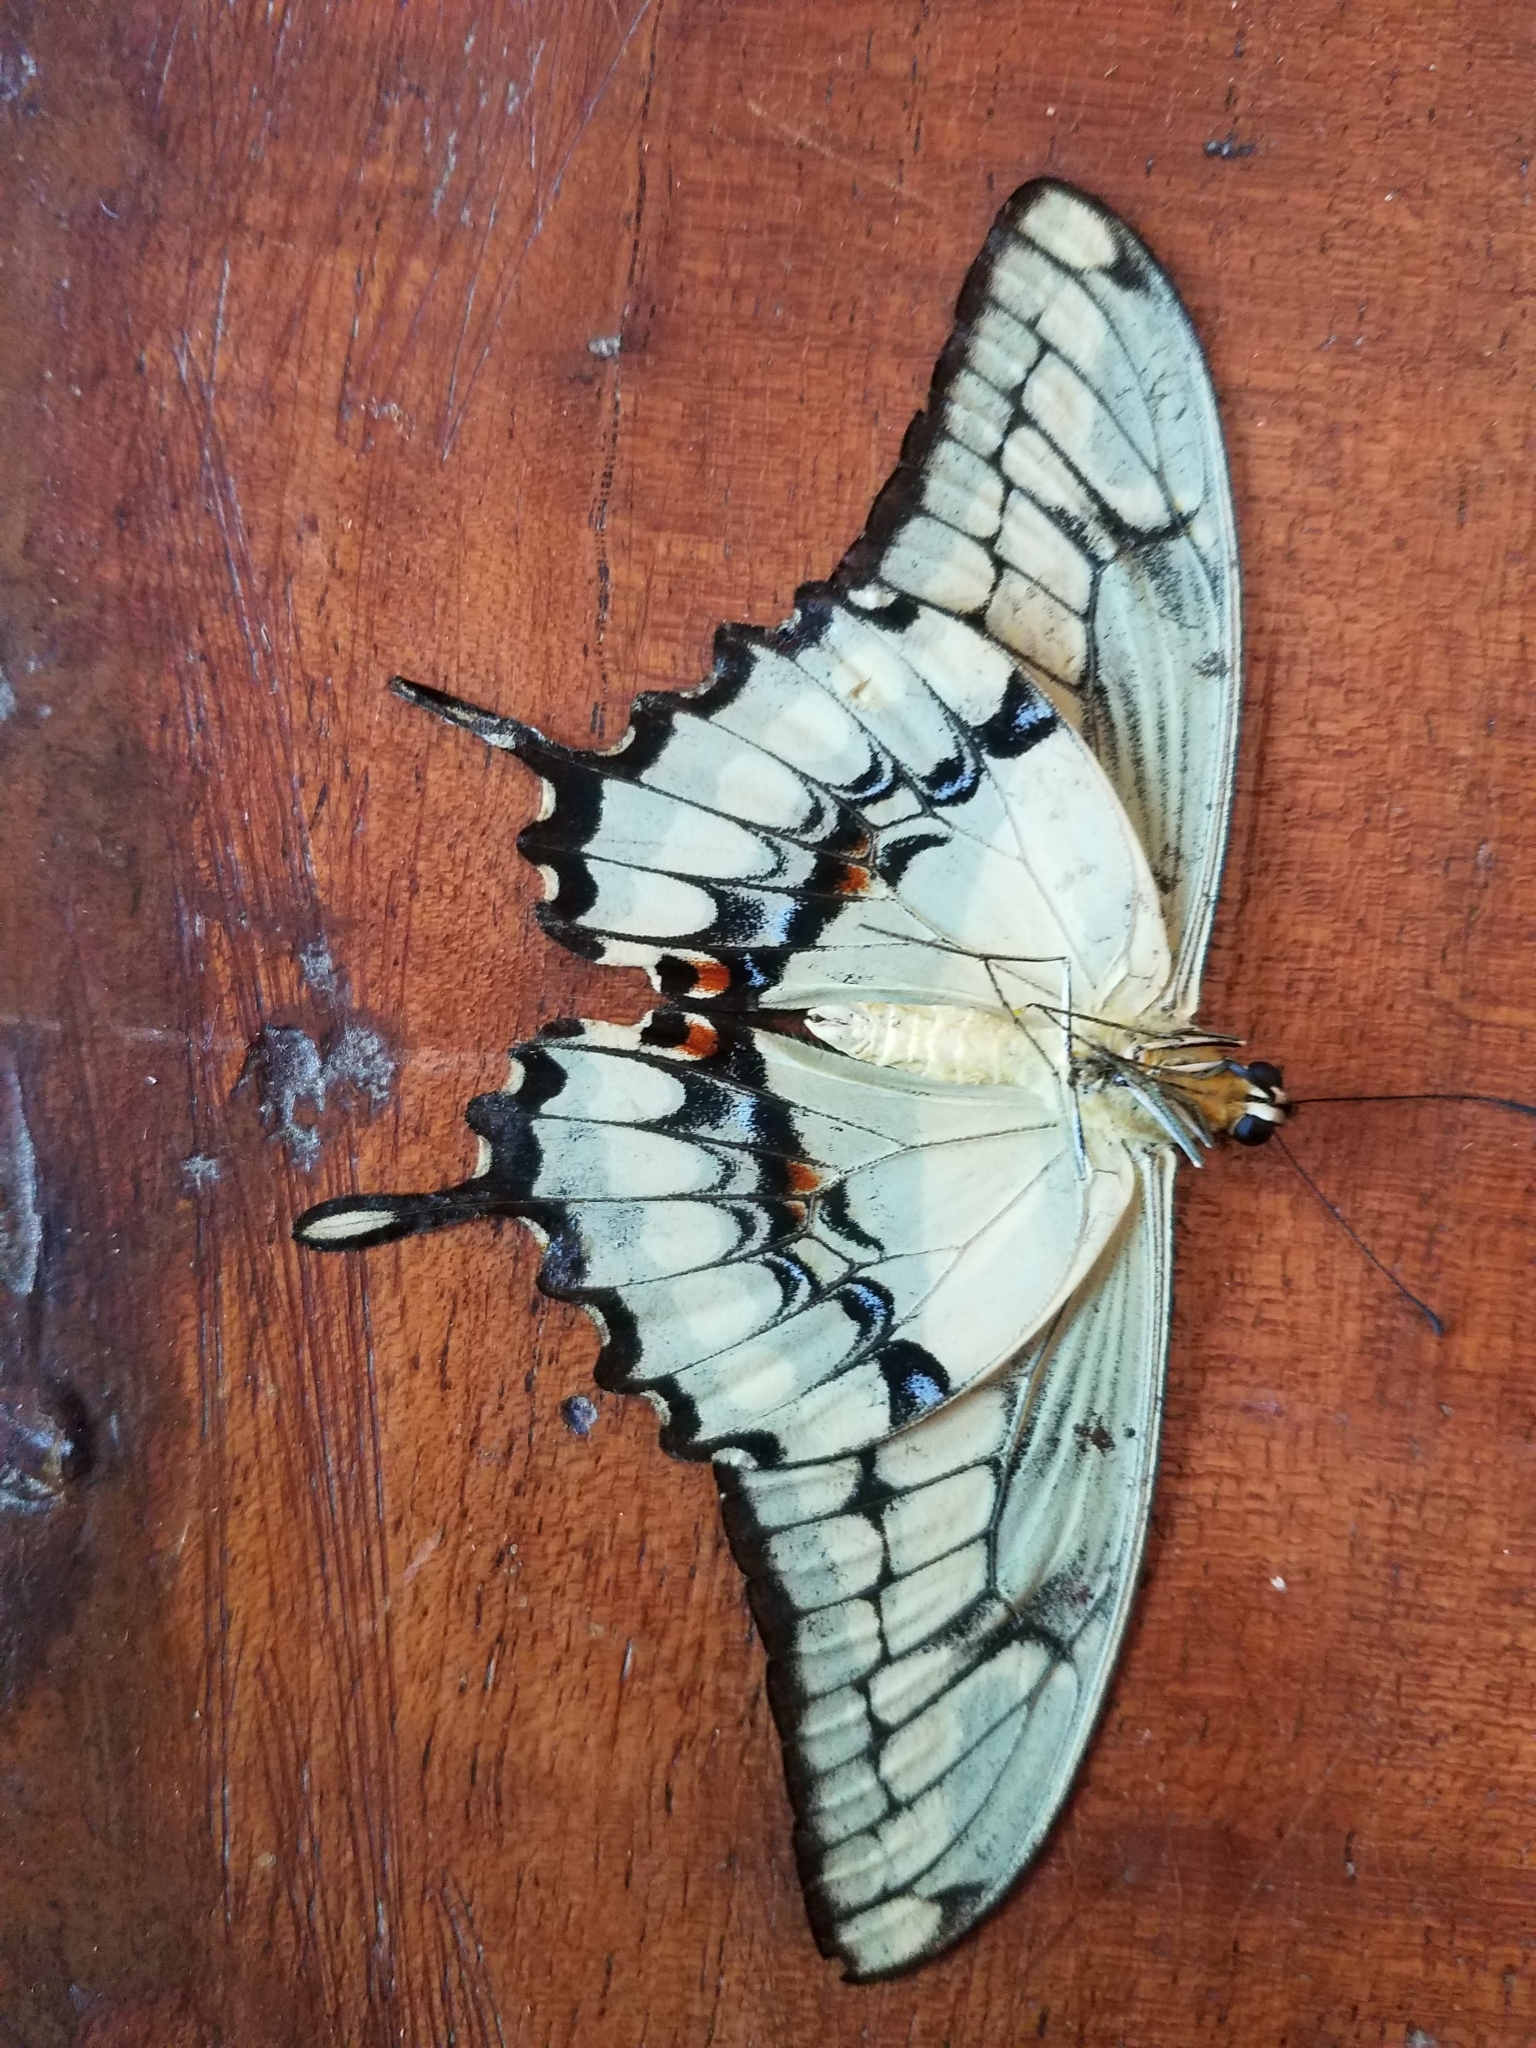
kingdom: Animalia
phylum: Arthropoda
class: Insecta
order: Lepidoptera
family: Papilionidae
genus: Papilio
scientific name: Papilio thoas
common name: King swallowtail
